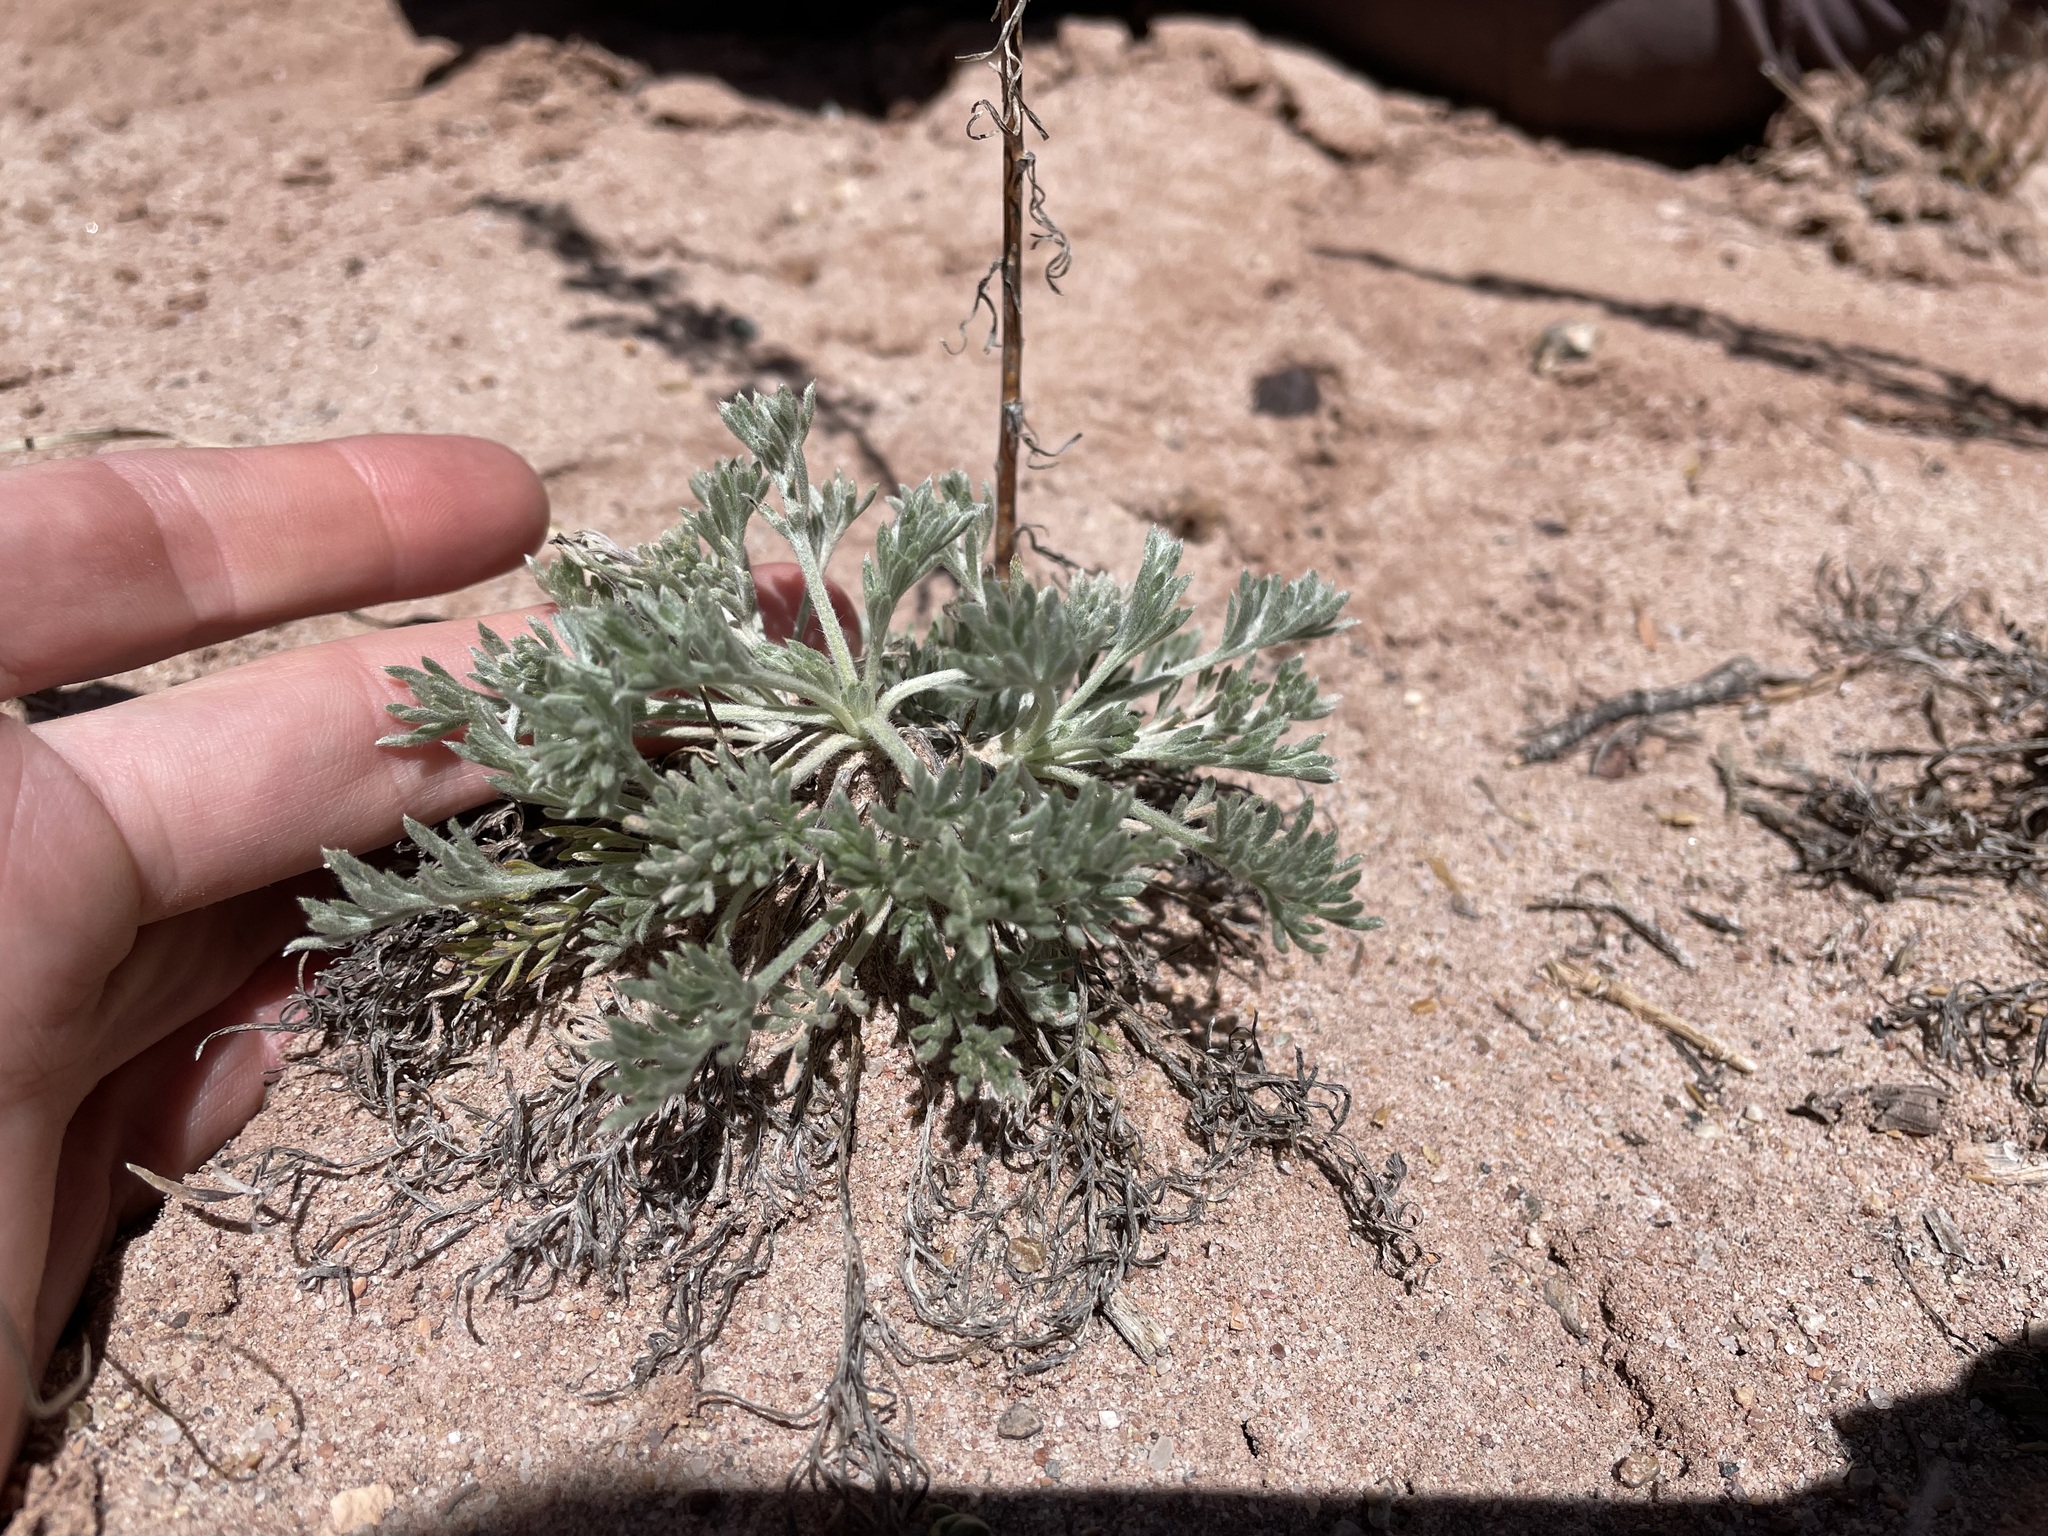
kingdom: Plantae
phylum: Tracheophyta
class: Magnoliopsida
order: Asterales
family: Asteraceae
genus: Artemisia
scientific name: Artemisia campestris
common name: Field wormwood
